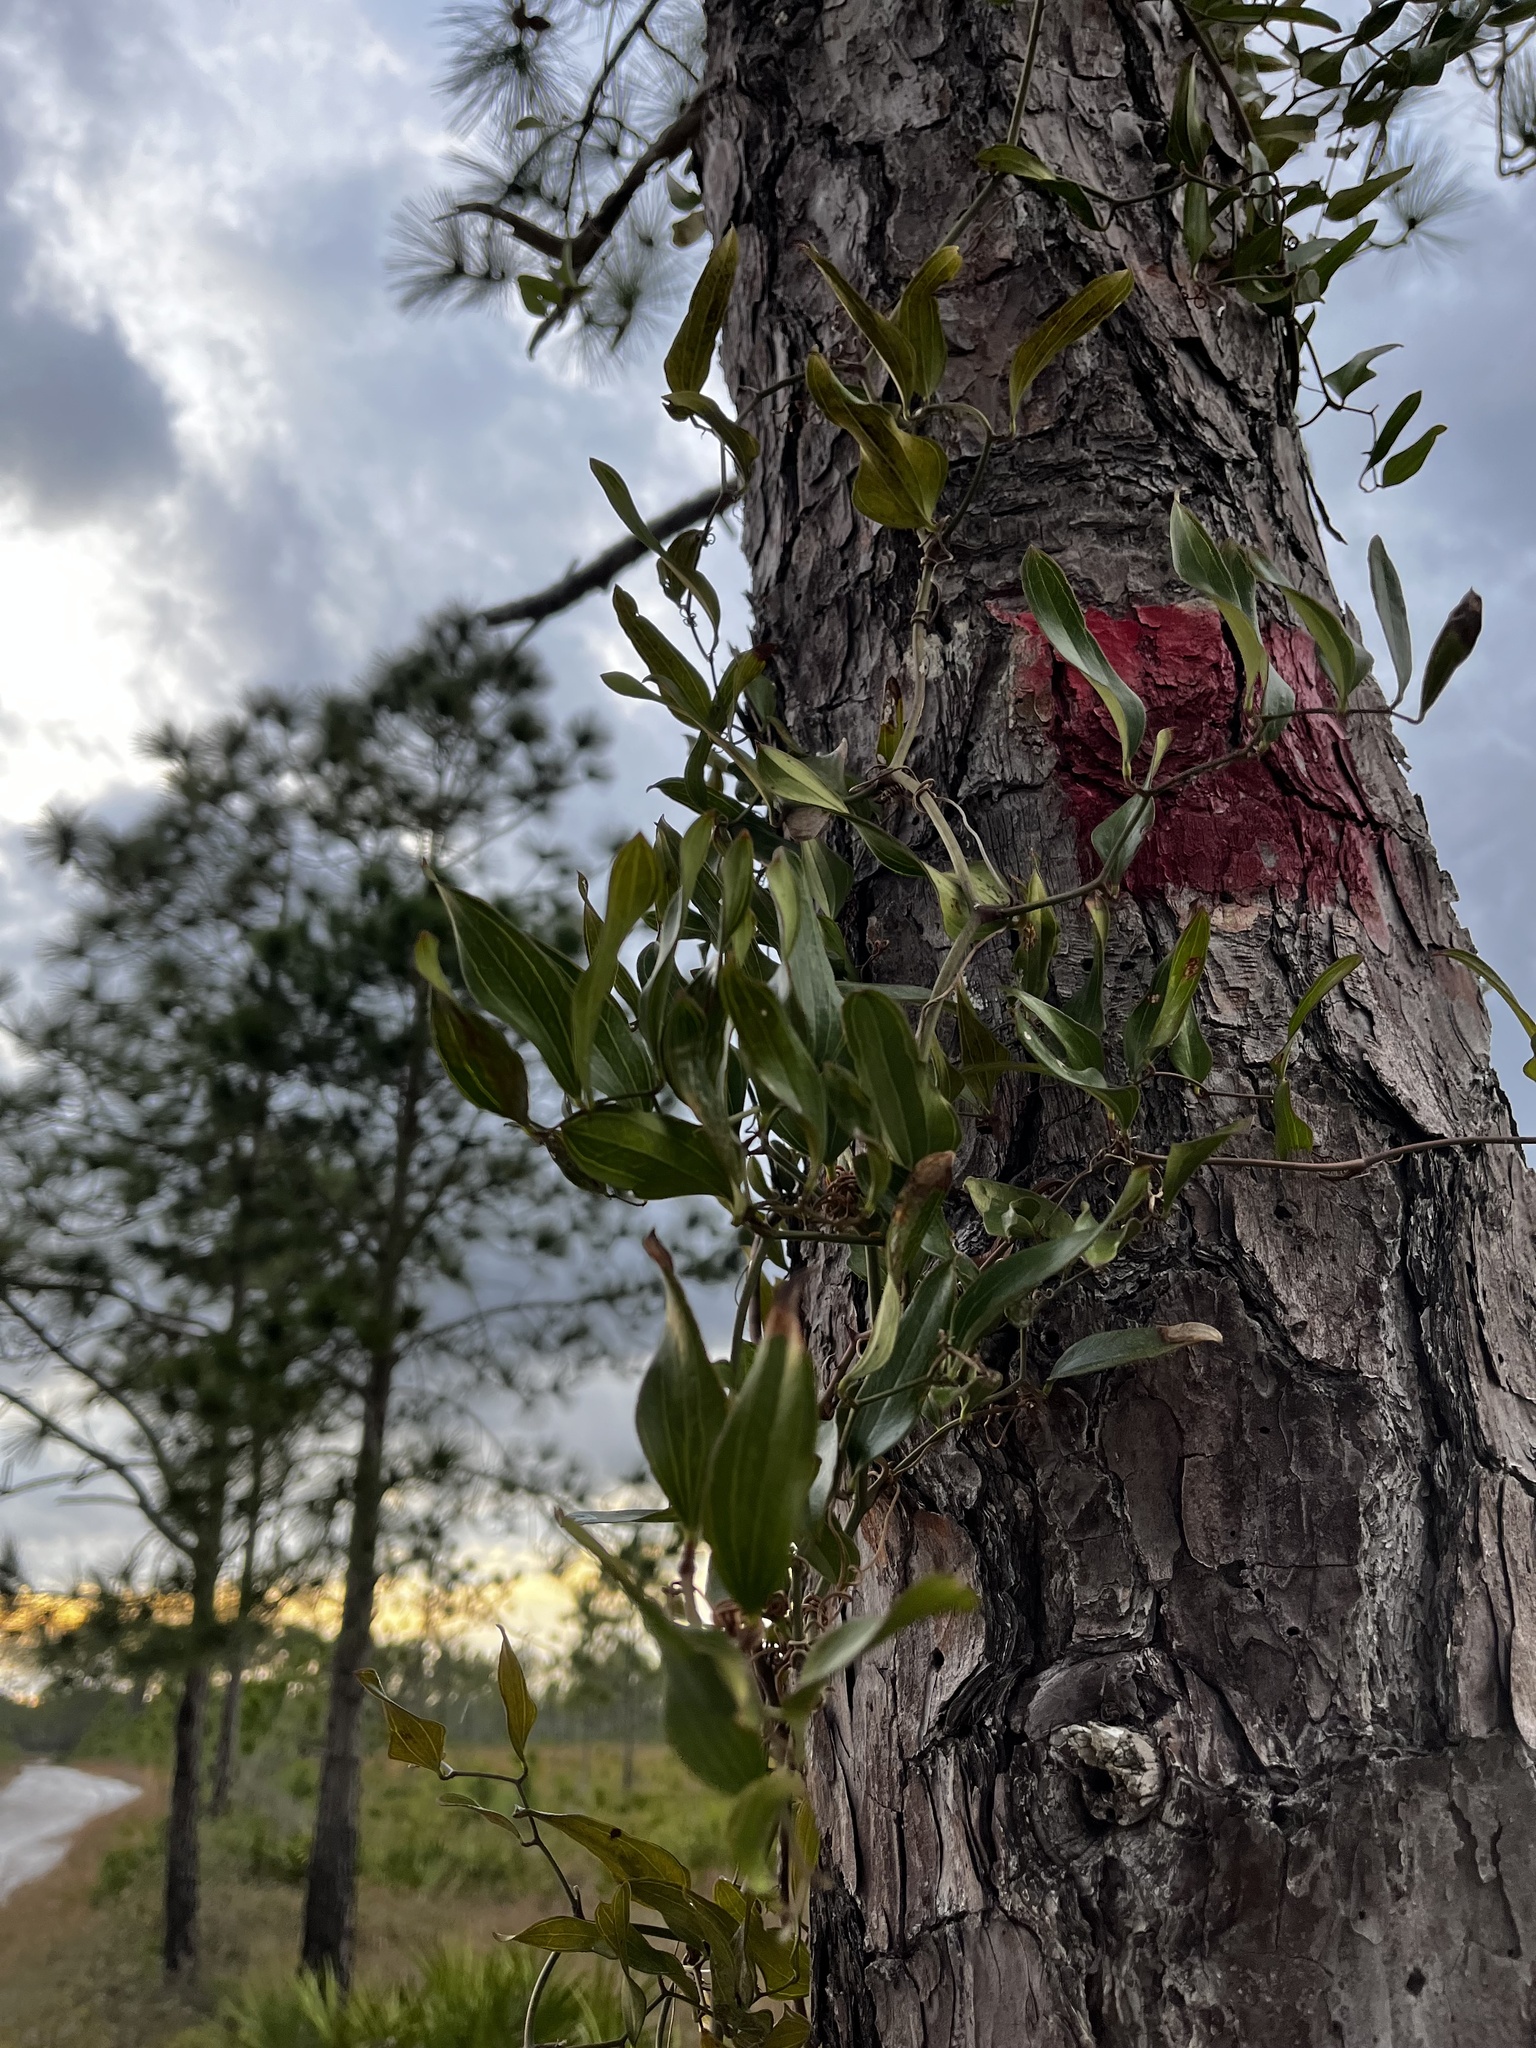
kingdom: Plantae
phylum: Tracheophyta
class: Liliopsida
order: Liliales
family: Smilacaceae
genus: Smilax
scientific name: Smilax auriculata
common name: Wild bamboo
